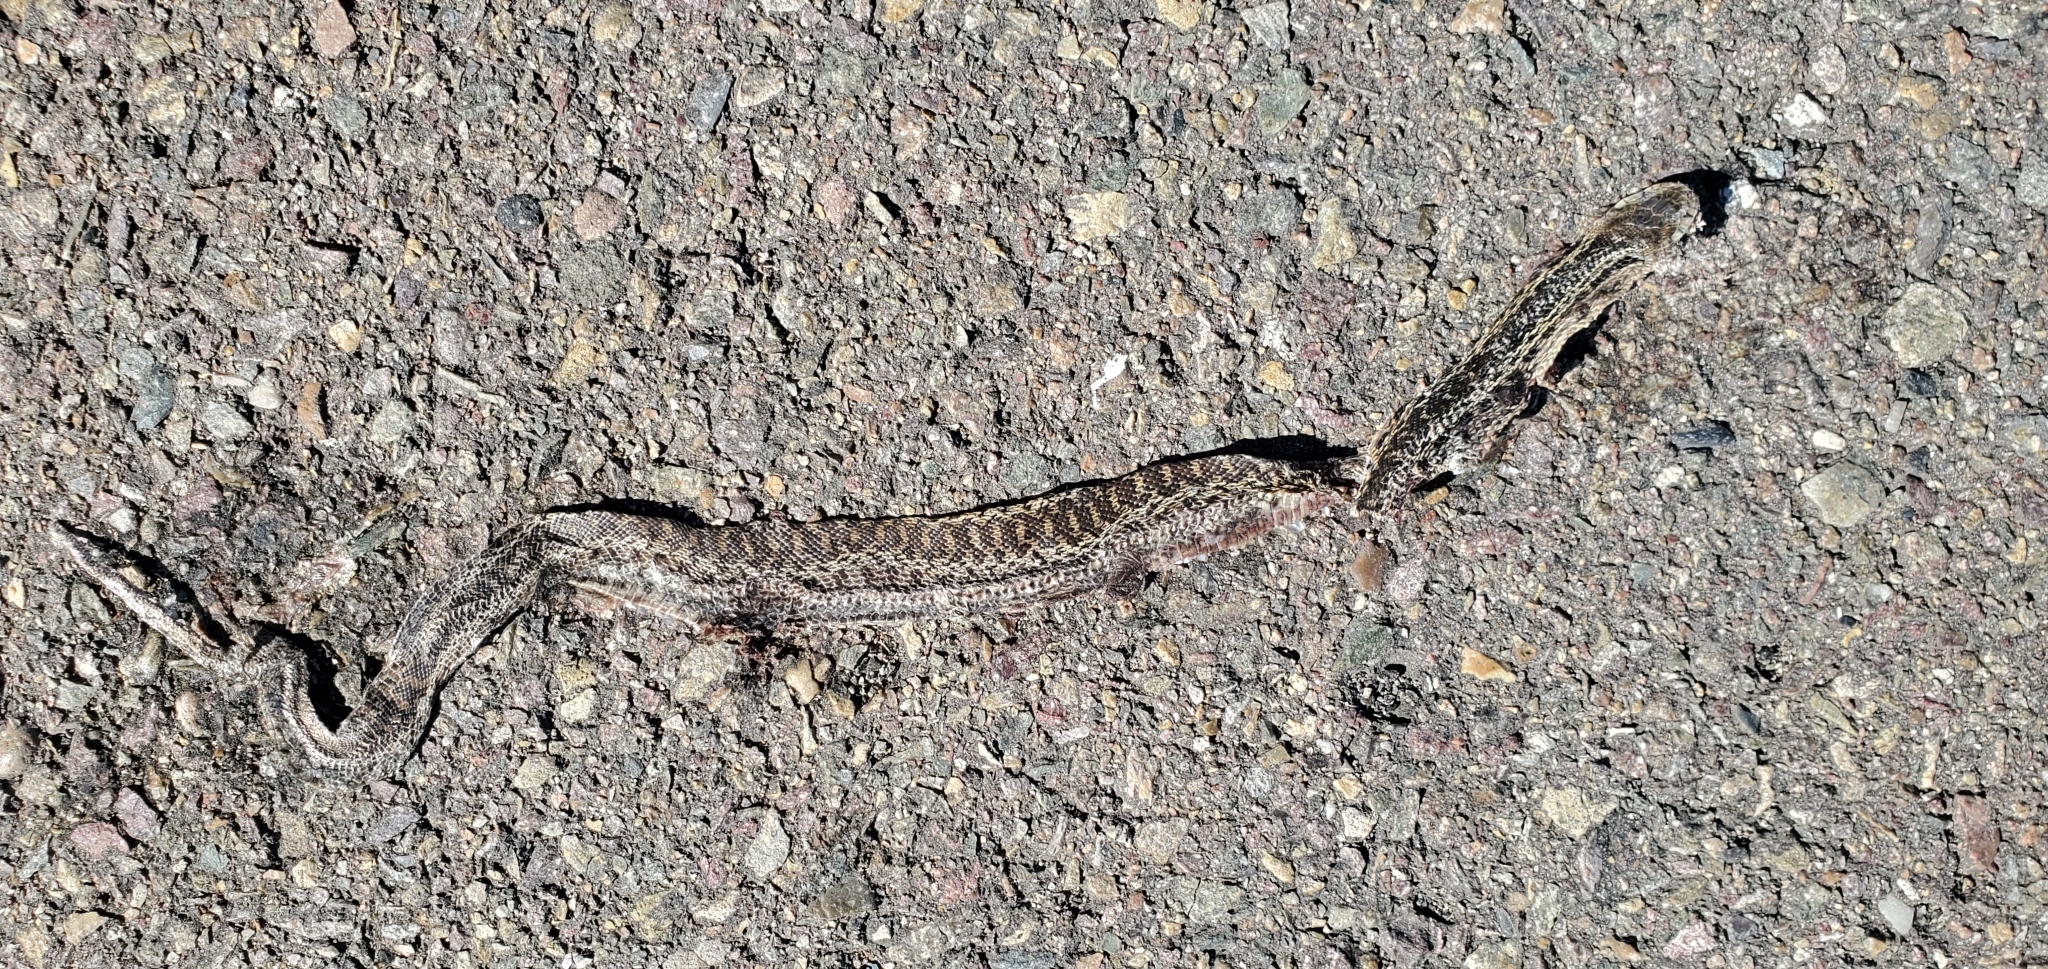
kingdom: Animalia
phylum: Chordata
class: Squamata
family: Colubridae
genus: Pituophis
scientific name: Pituophis catenifer
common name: Gopher snake
